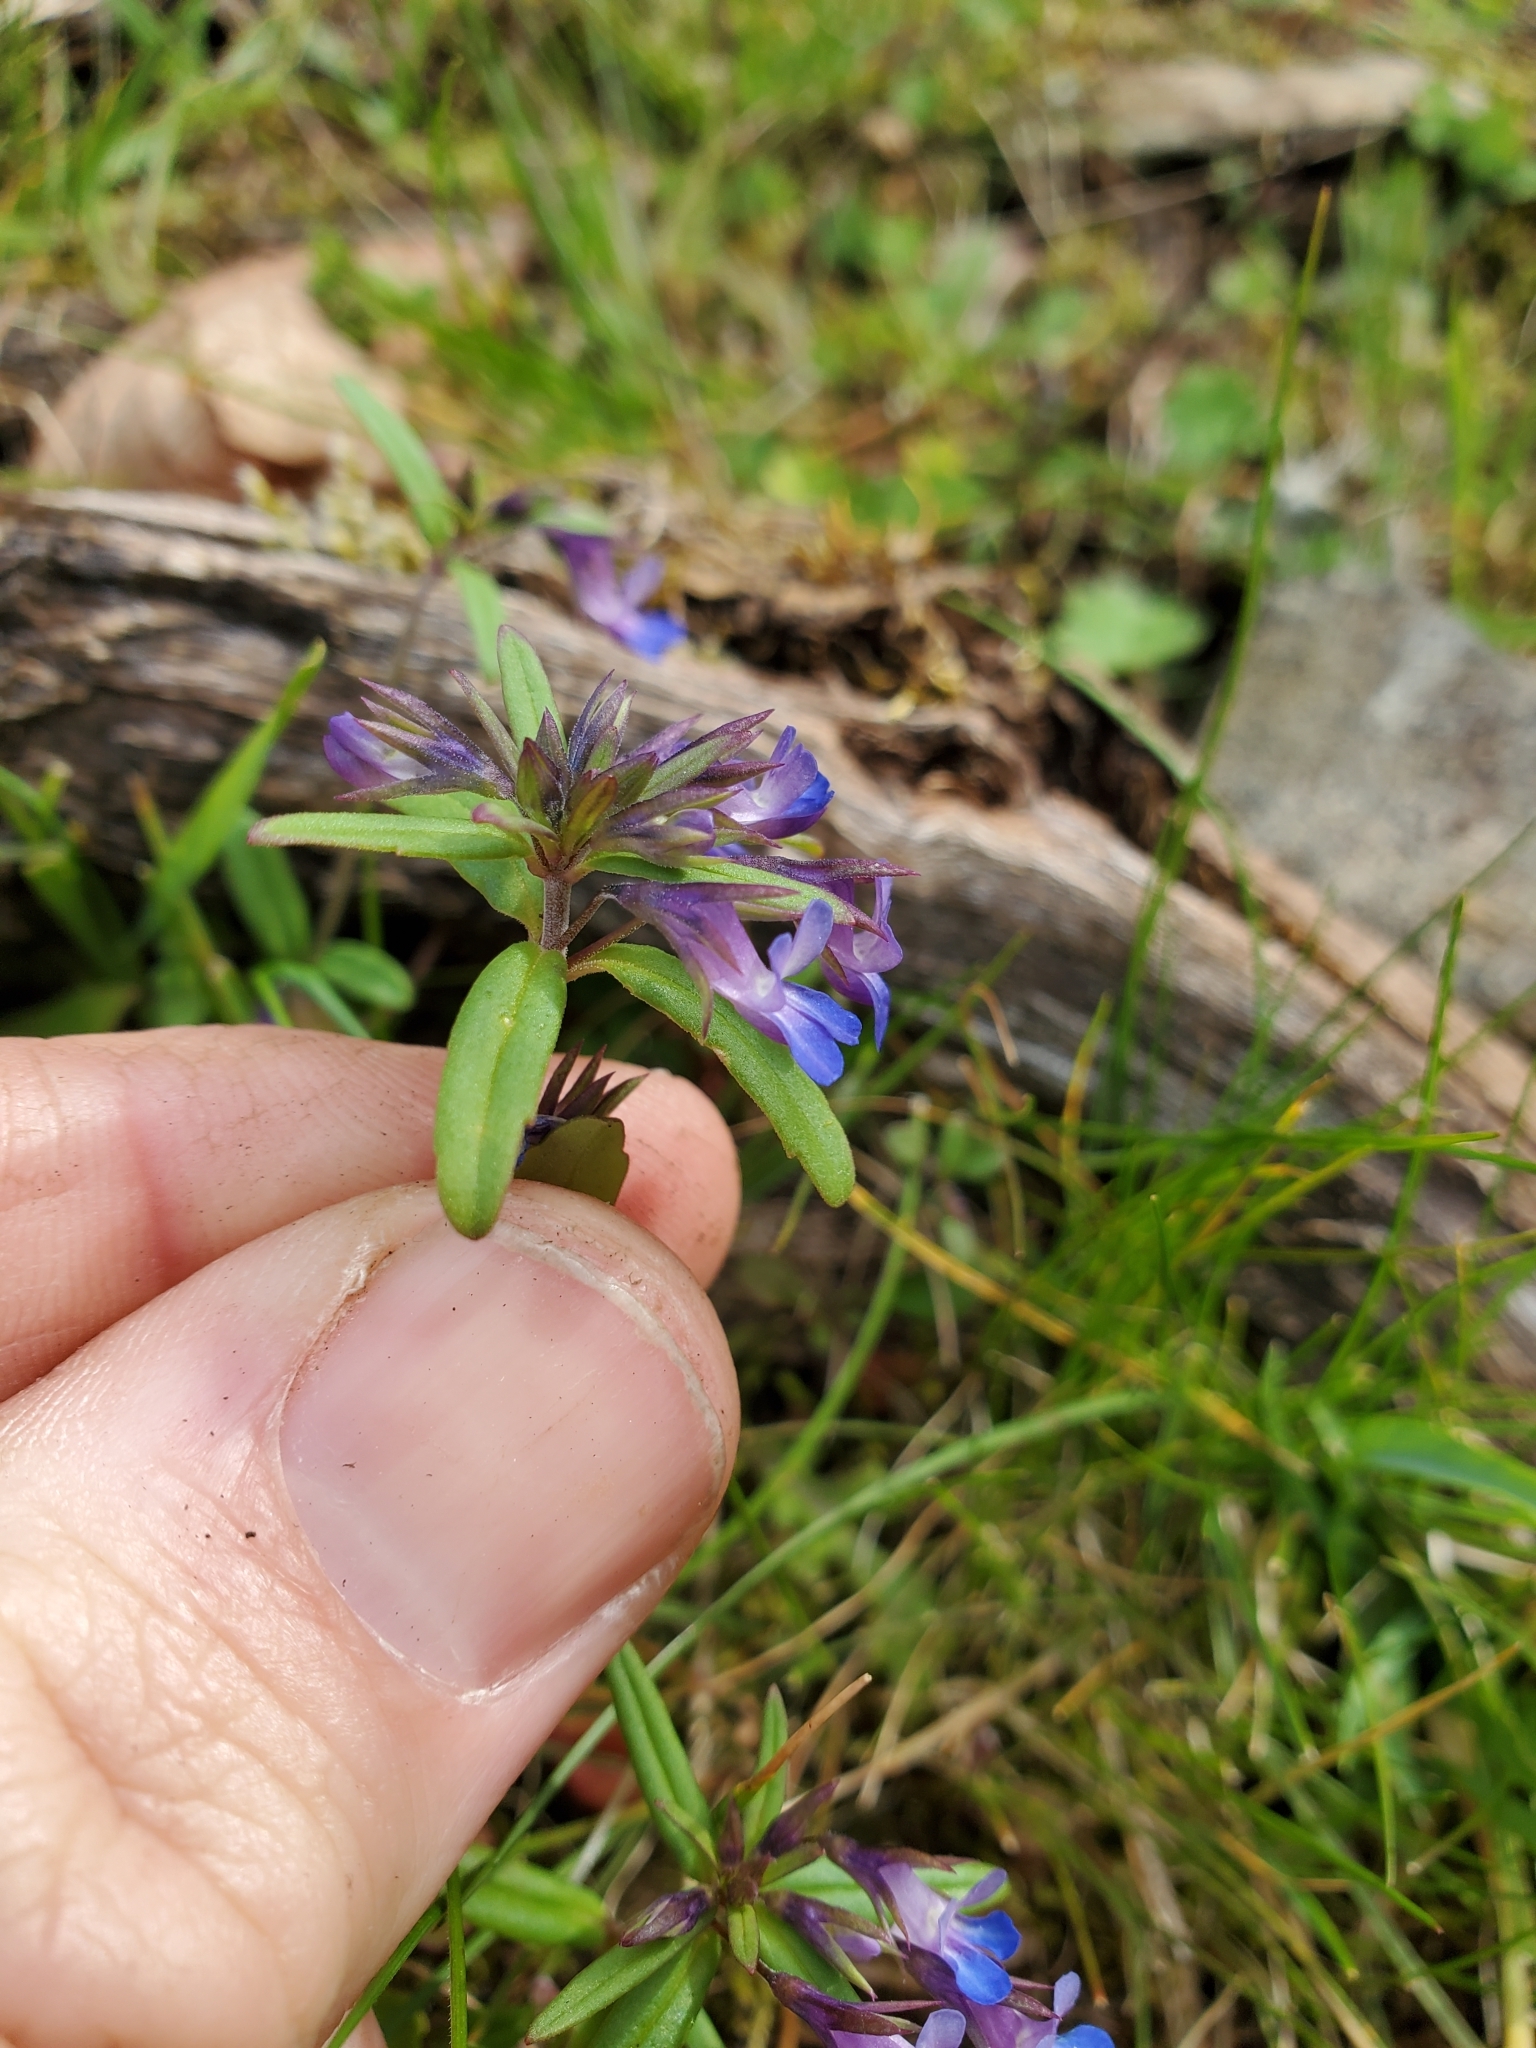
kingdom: Plantae
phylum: Tracheophyta
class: Magnoliopsida
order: Lamiales
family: Plantaginaceae
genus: Collinsia
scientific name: Collinsia grandiflora
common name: Large-flower blue-eyed-mary
